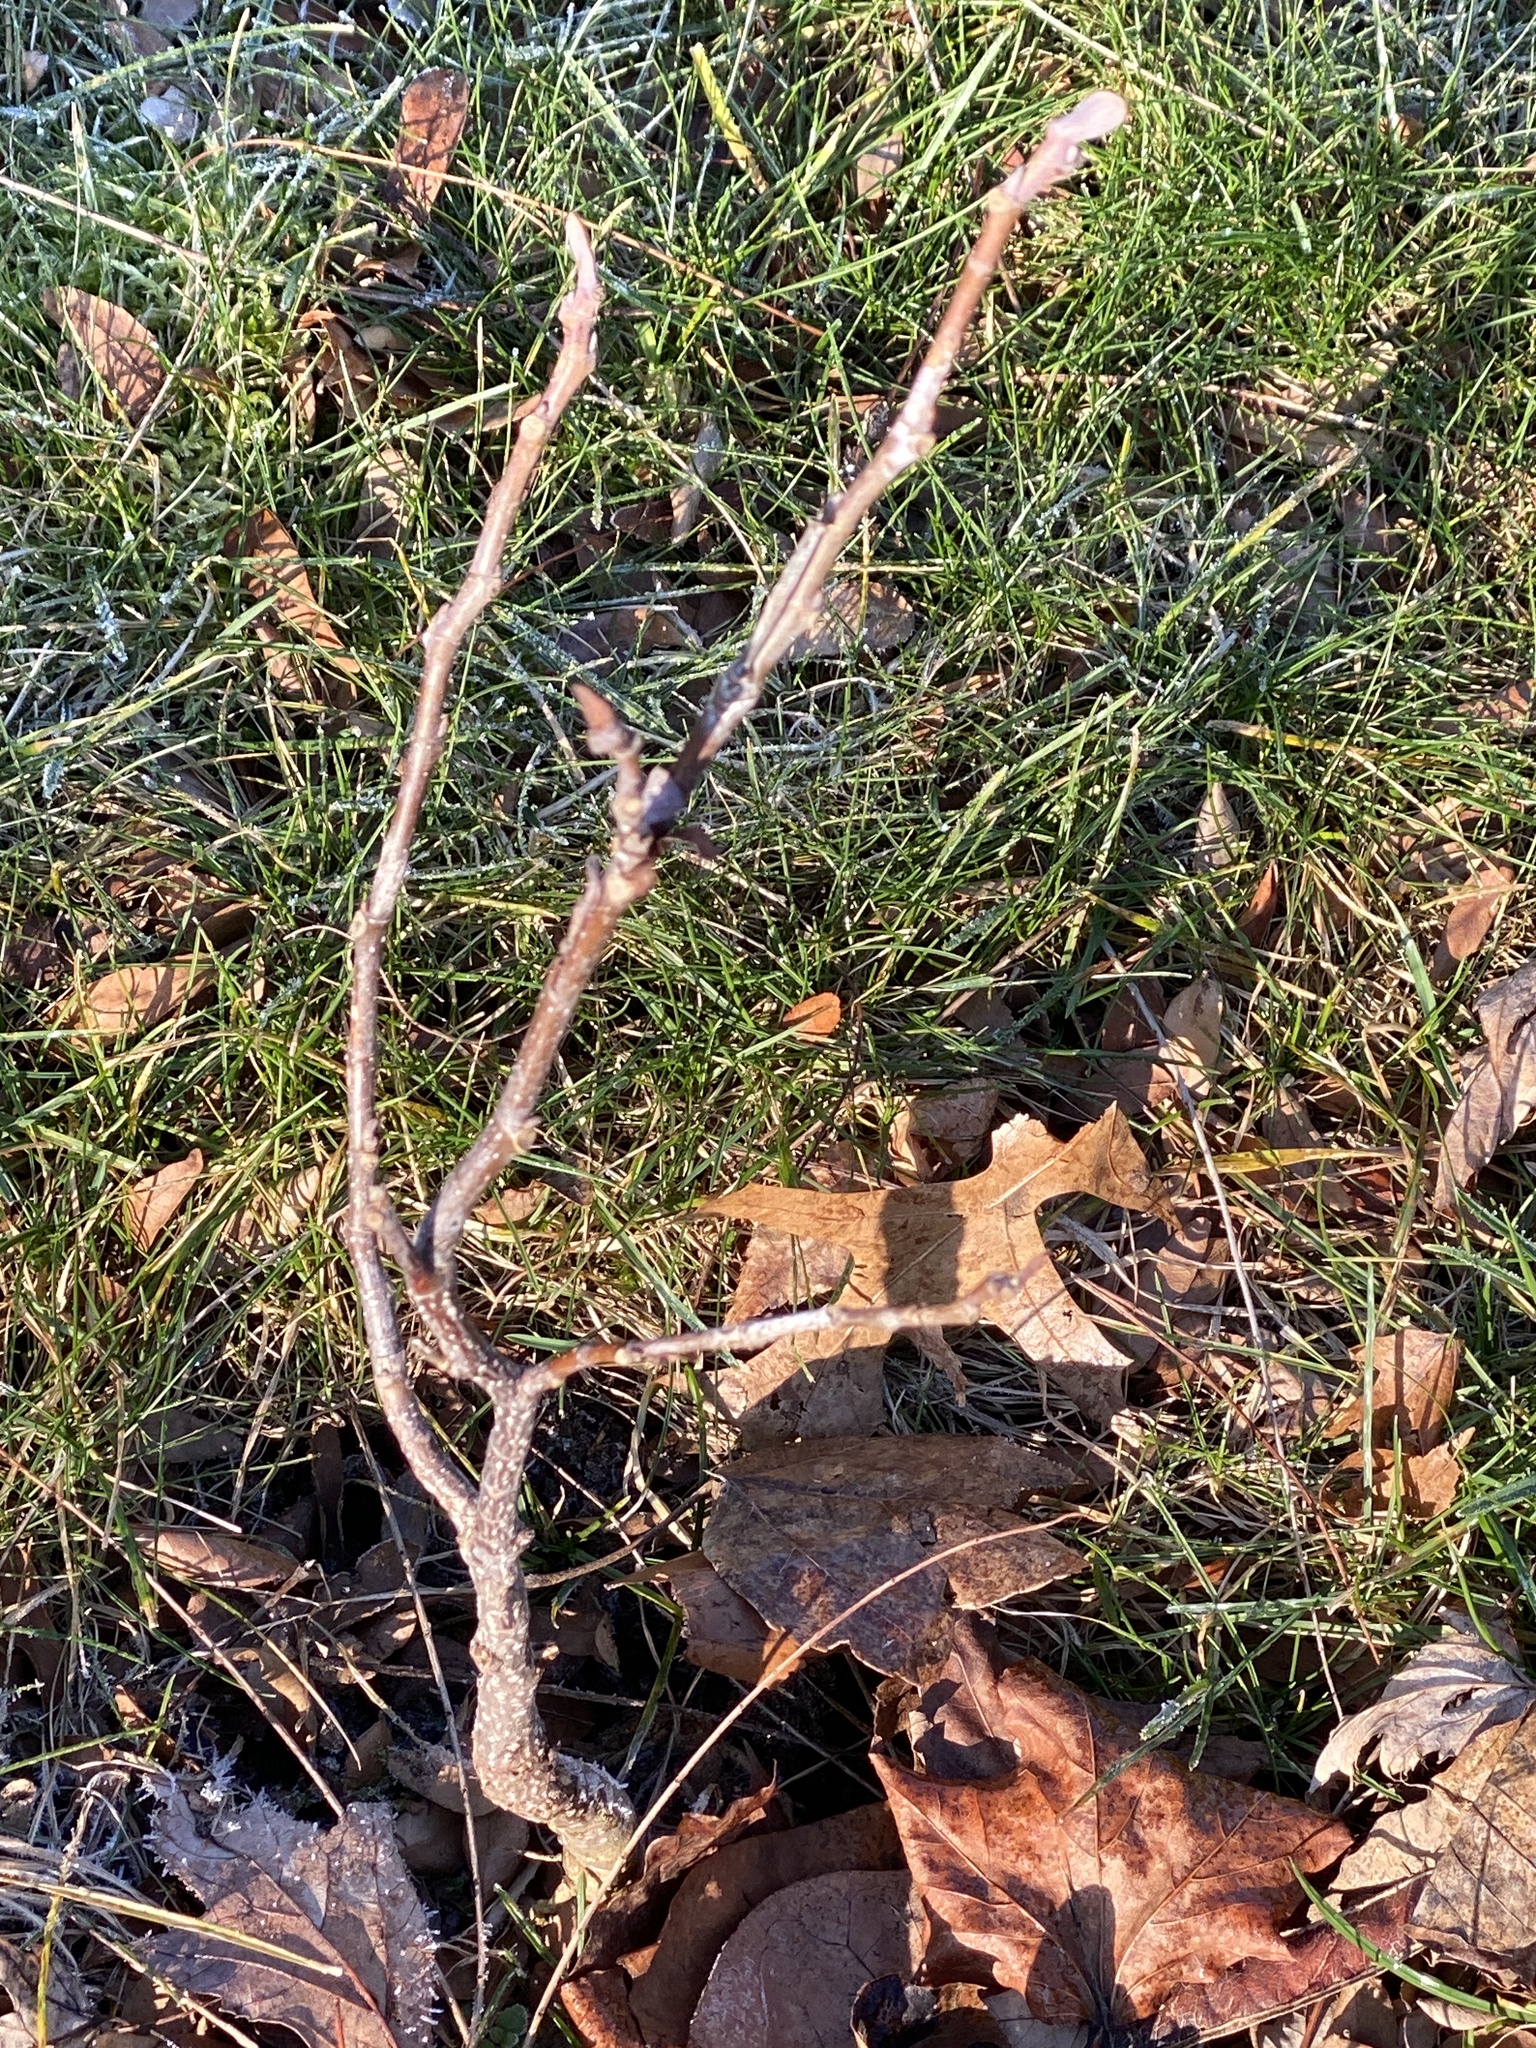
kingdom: Plantae
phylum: Tracheophyta
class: Magnoliopsida
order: Magnoliales
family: Magnoliaceae
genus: Liriodendron
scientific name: Liriodendron tulipifera
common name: Tulip tree
